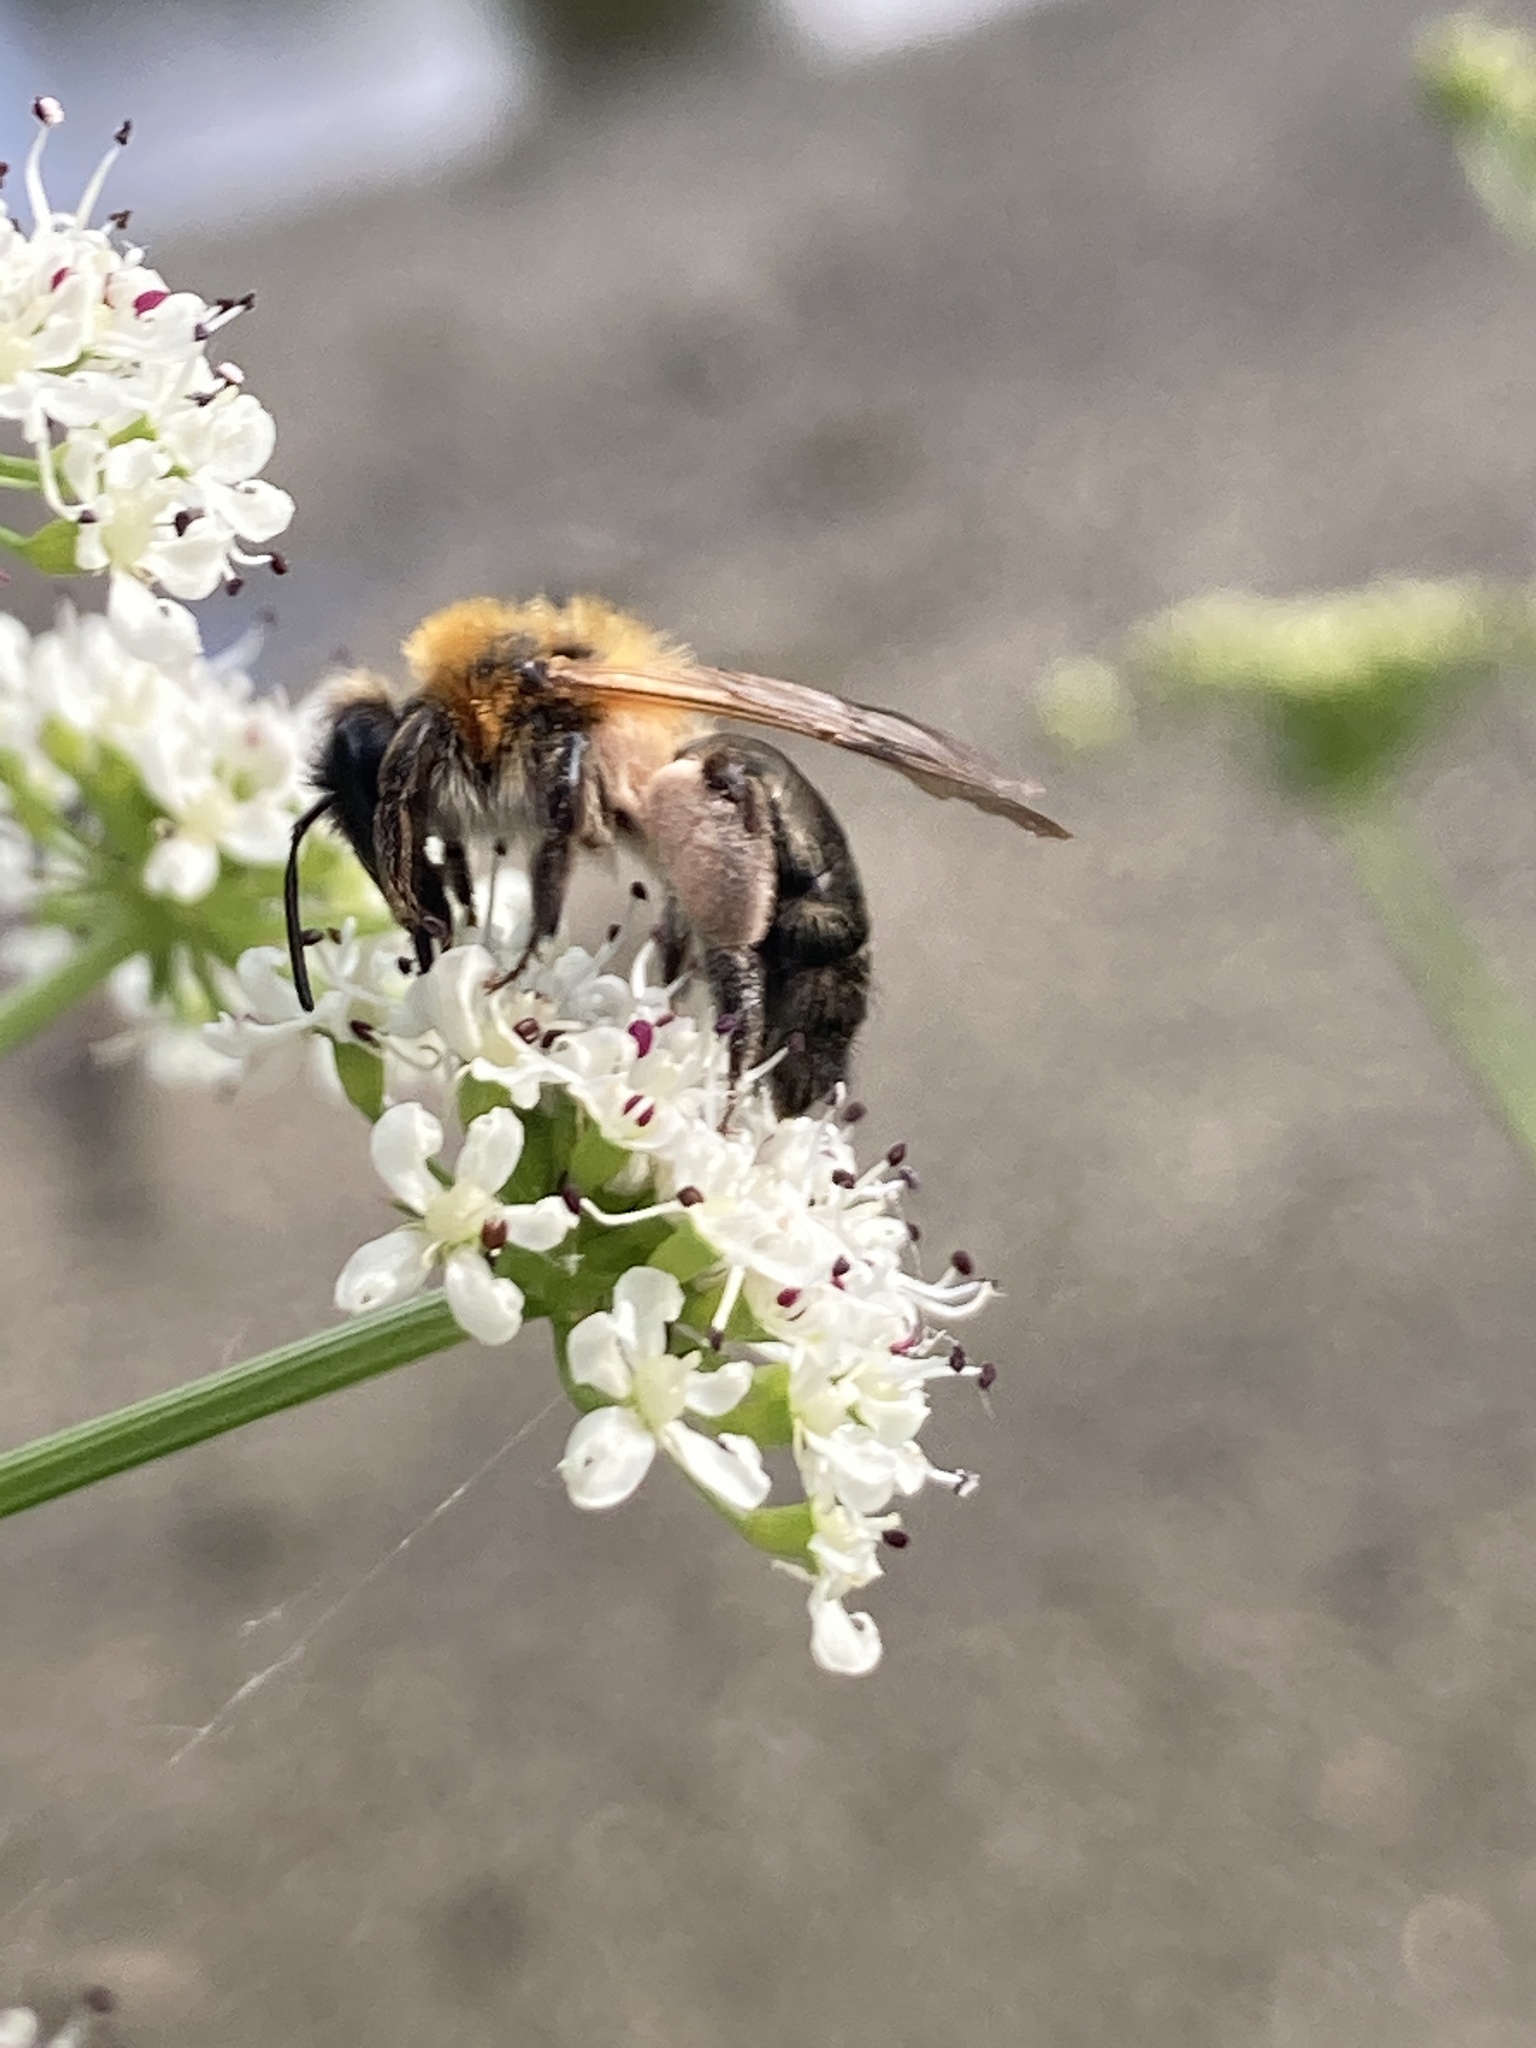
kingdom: Animalia
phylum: Arthropoda
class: Insecta
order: Hymenoptera
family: Andrenidae
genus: Andrena
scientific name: Andrena nitida
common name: Grey-patched mining bee
